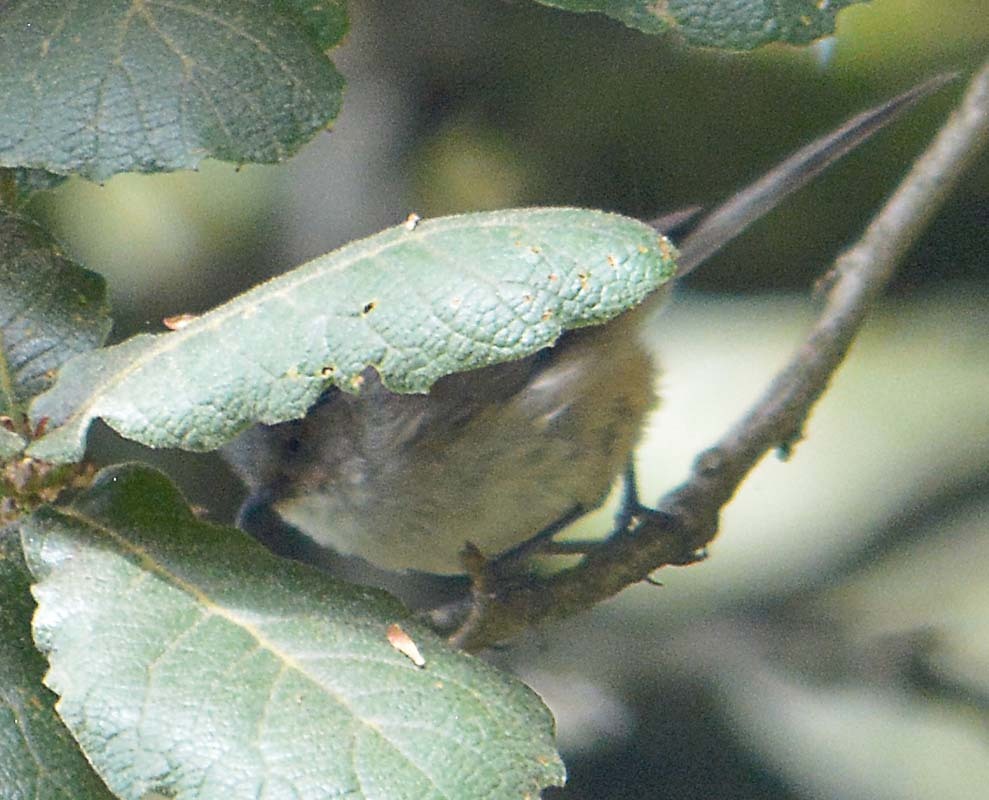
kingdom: Animalia
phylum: Chordata
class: Aves
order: Passeriformes
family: Aegithalidae
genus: Psaltriparus
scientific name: Psaltriparus minimus
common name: American bushtit
